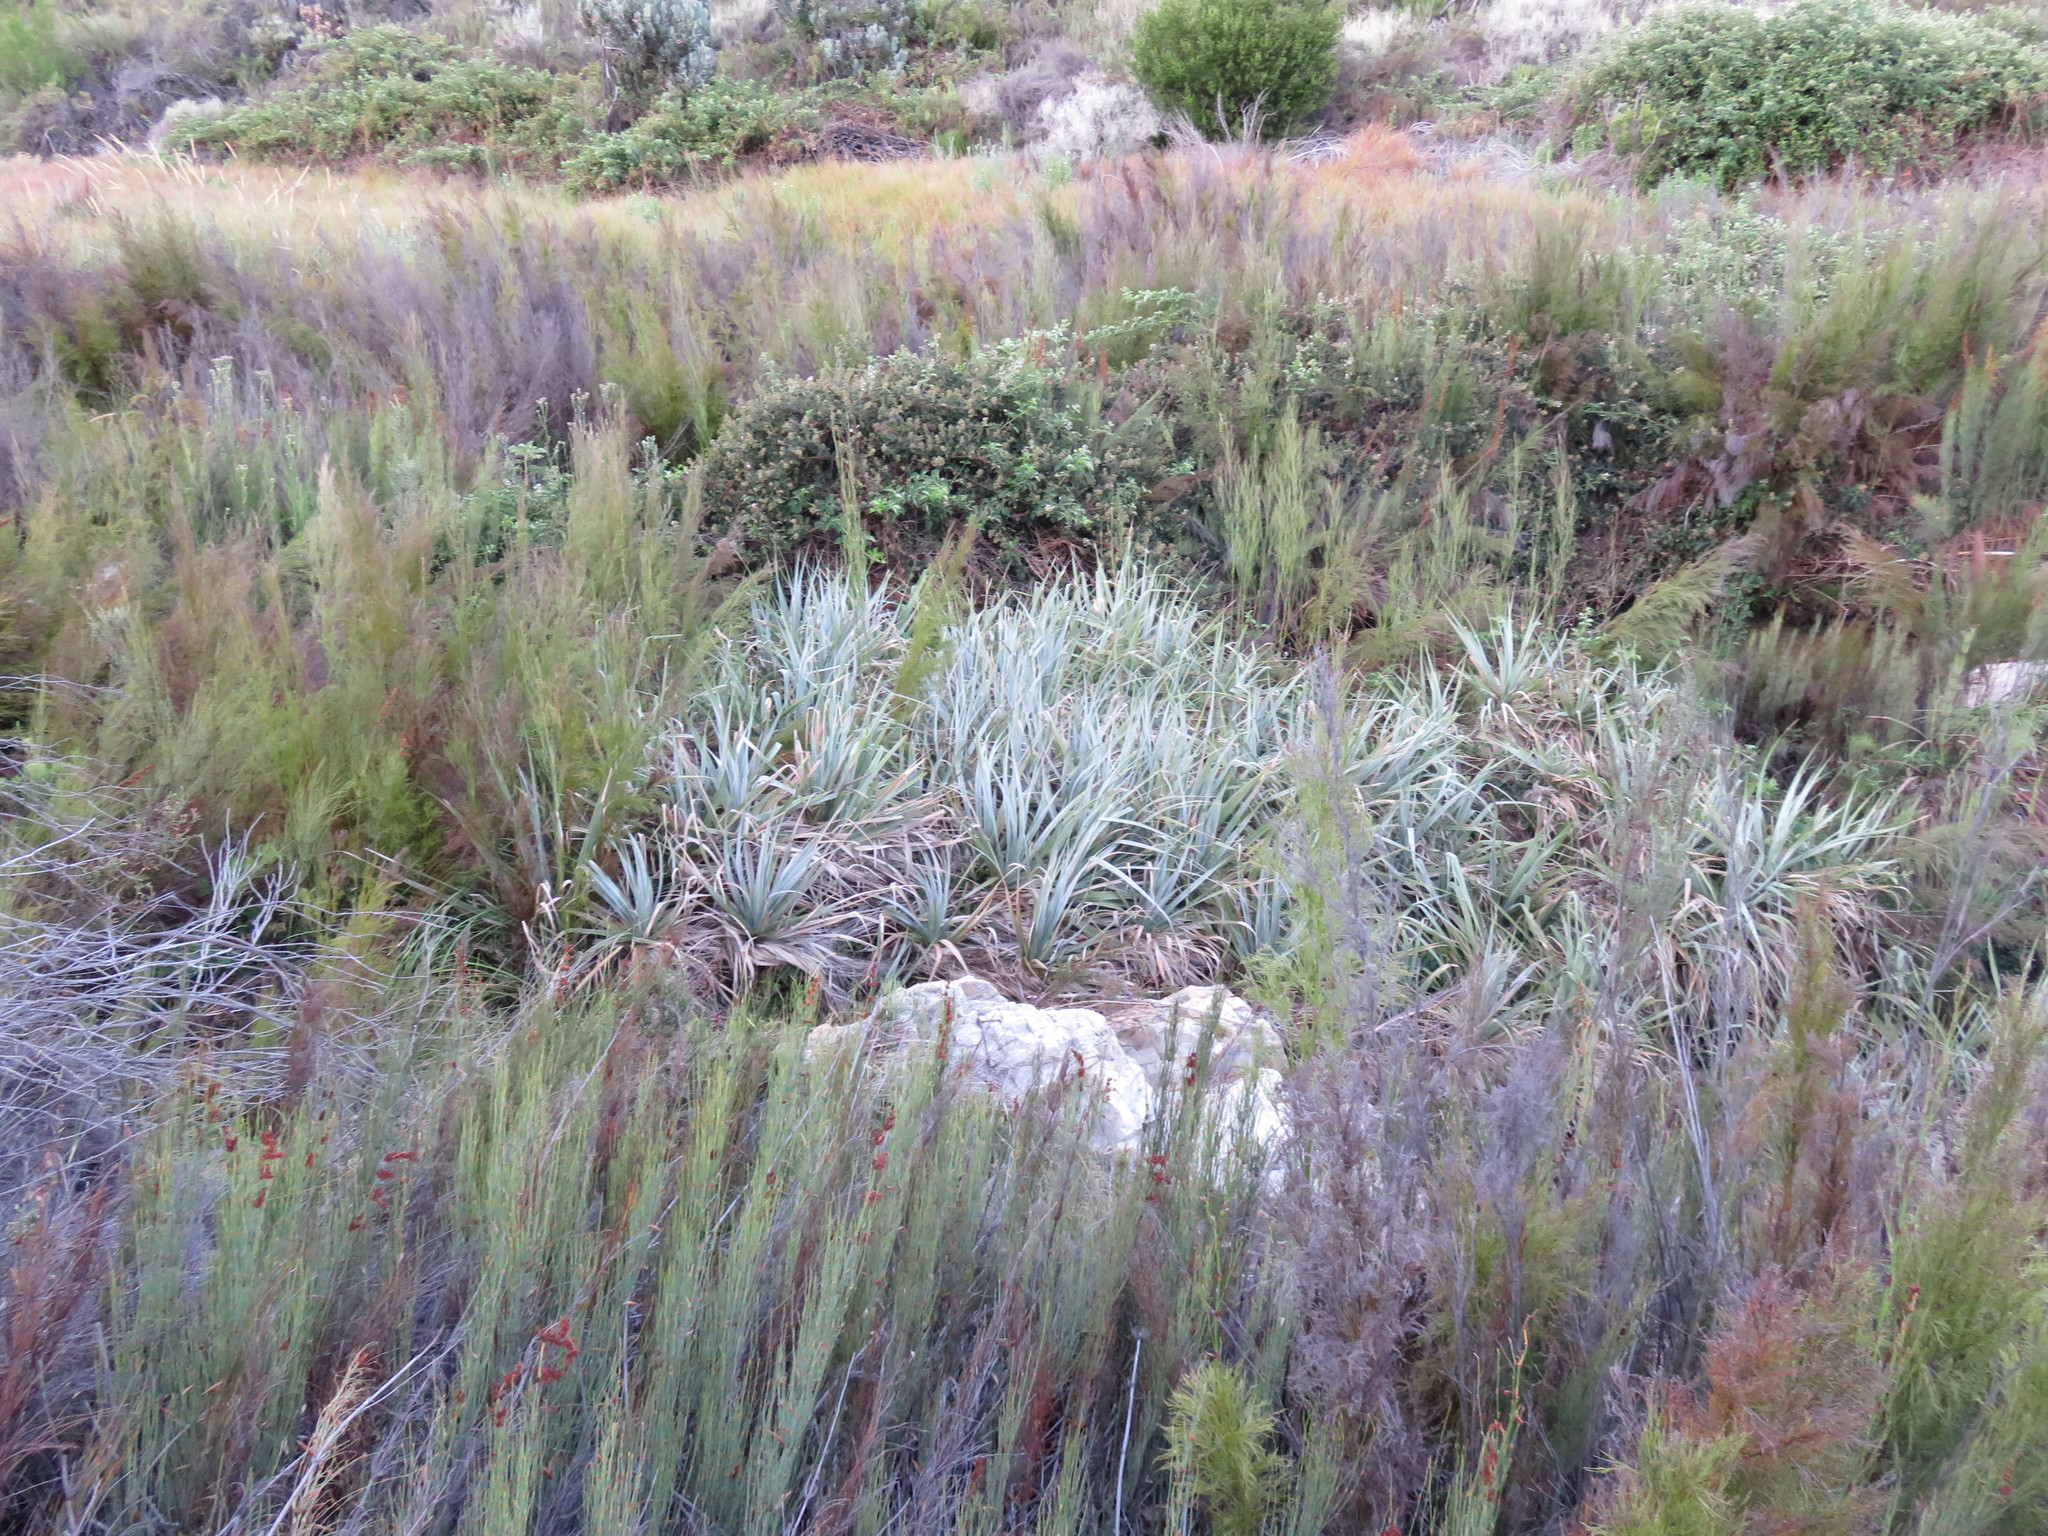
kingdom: Plantae
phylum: Tracheophyta
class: Liliopsida
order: Poales
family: Thurniaceae
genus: Prionium
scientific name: Prionium serratum
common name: Palmiet
